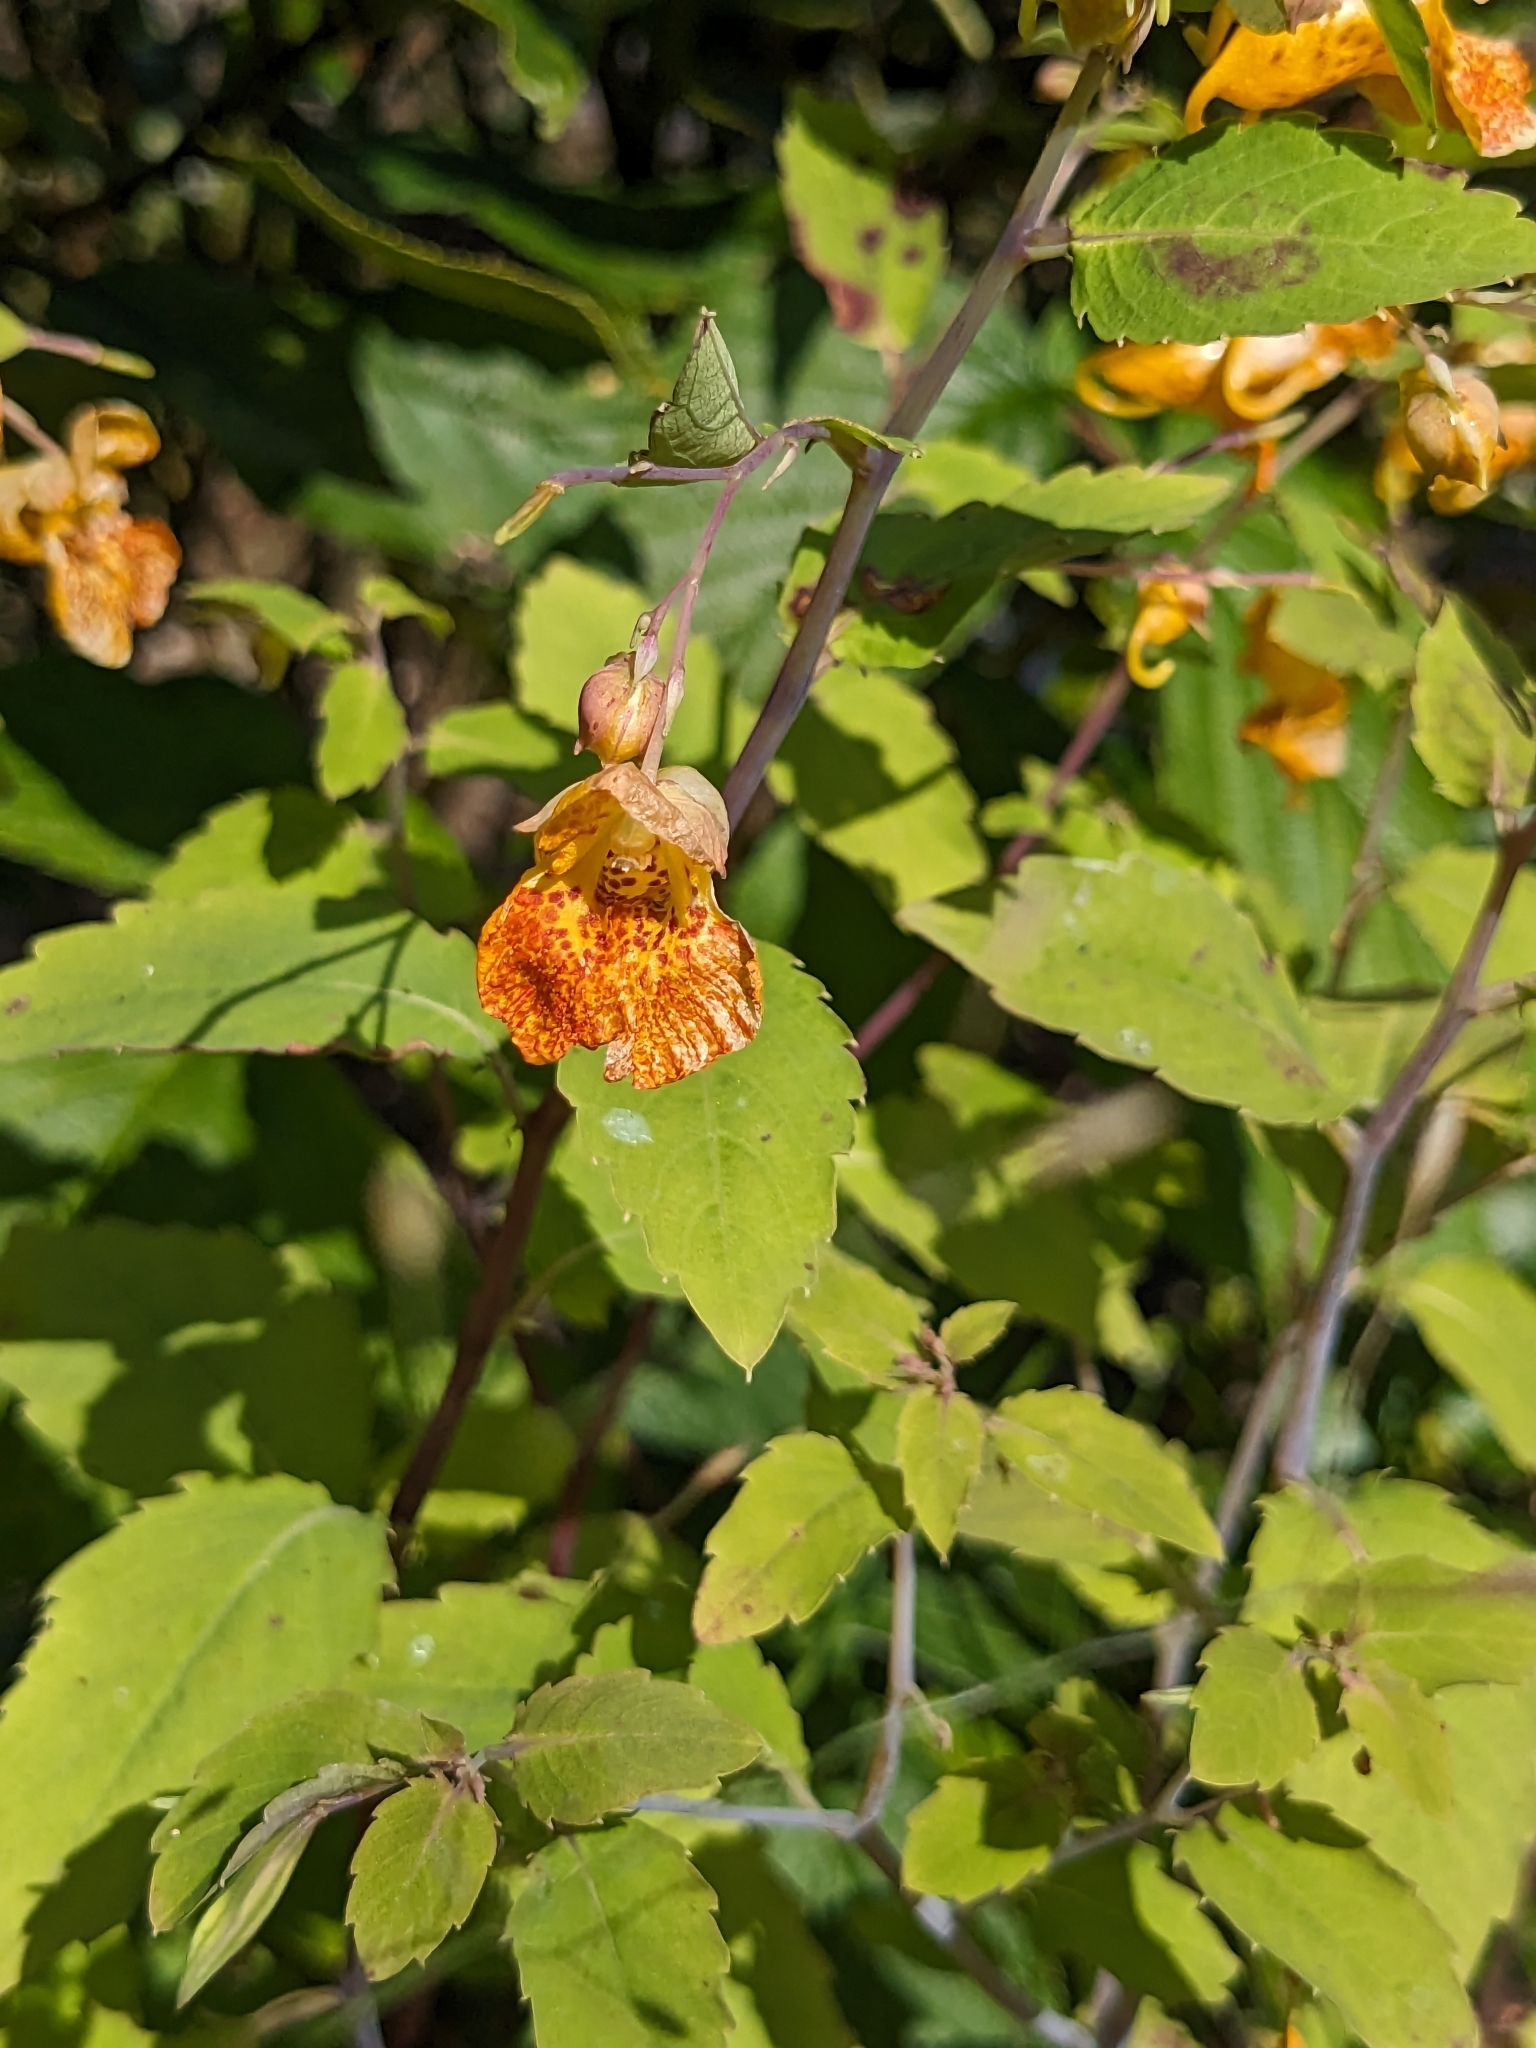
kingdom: Plantae
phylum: Tracheophyta
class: Magnoliopsida
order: Ericales
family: Balsaminaceae
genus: Impatiens
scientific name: Impatiens capensis
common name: Orange balsam
